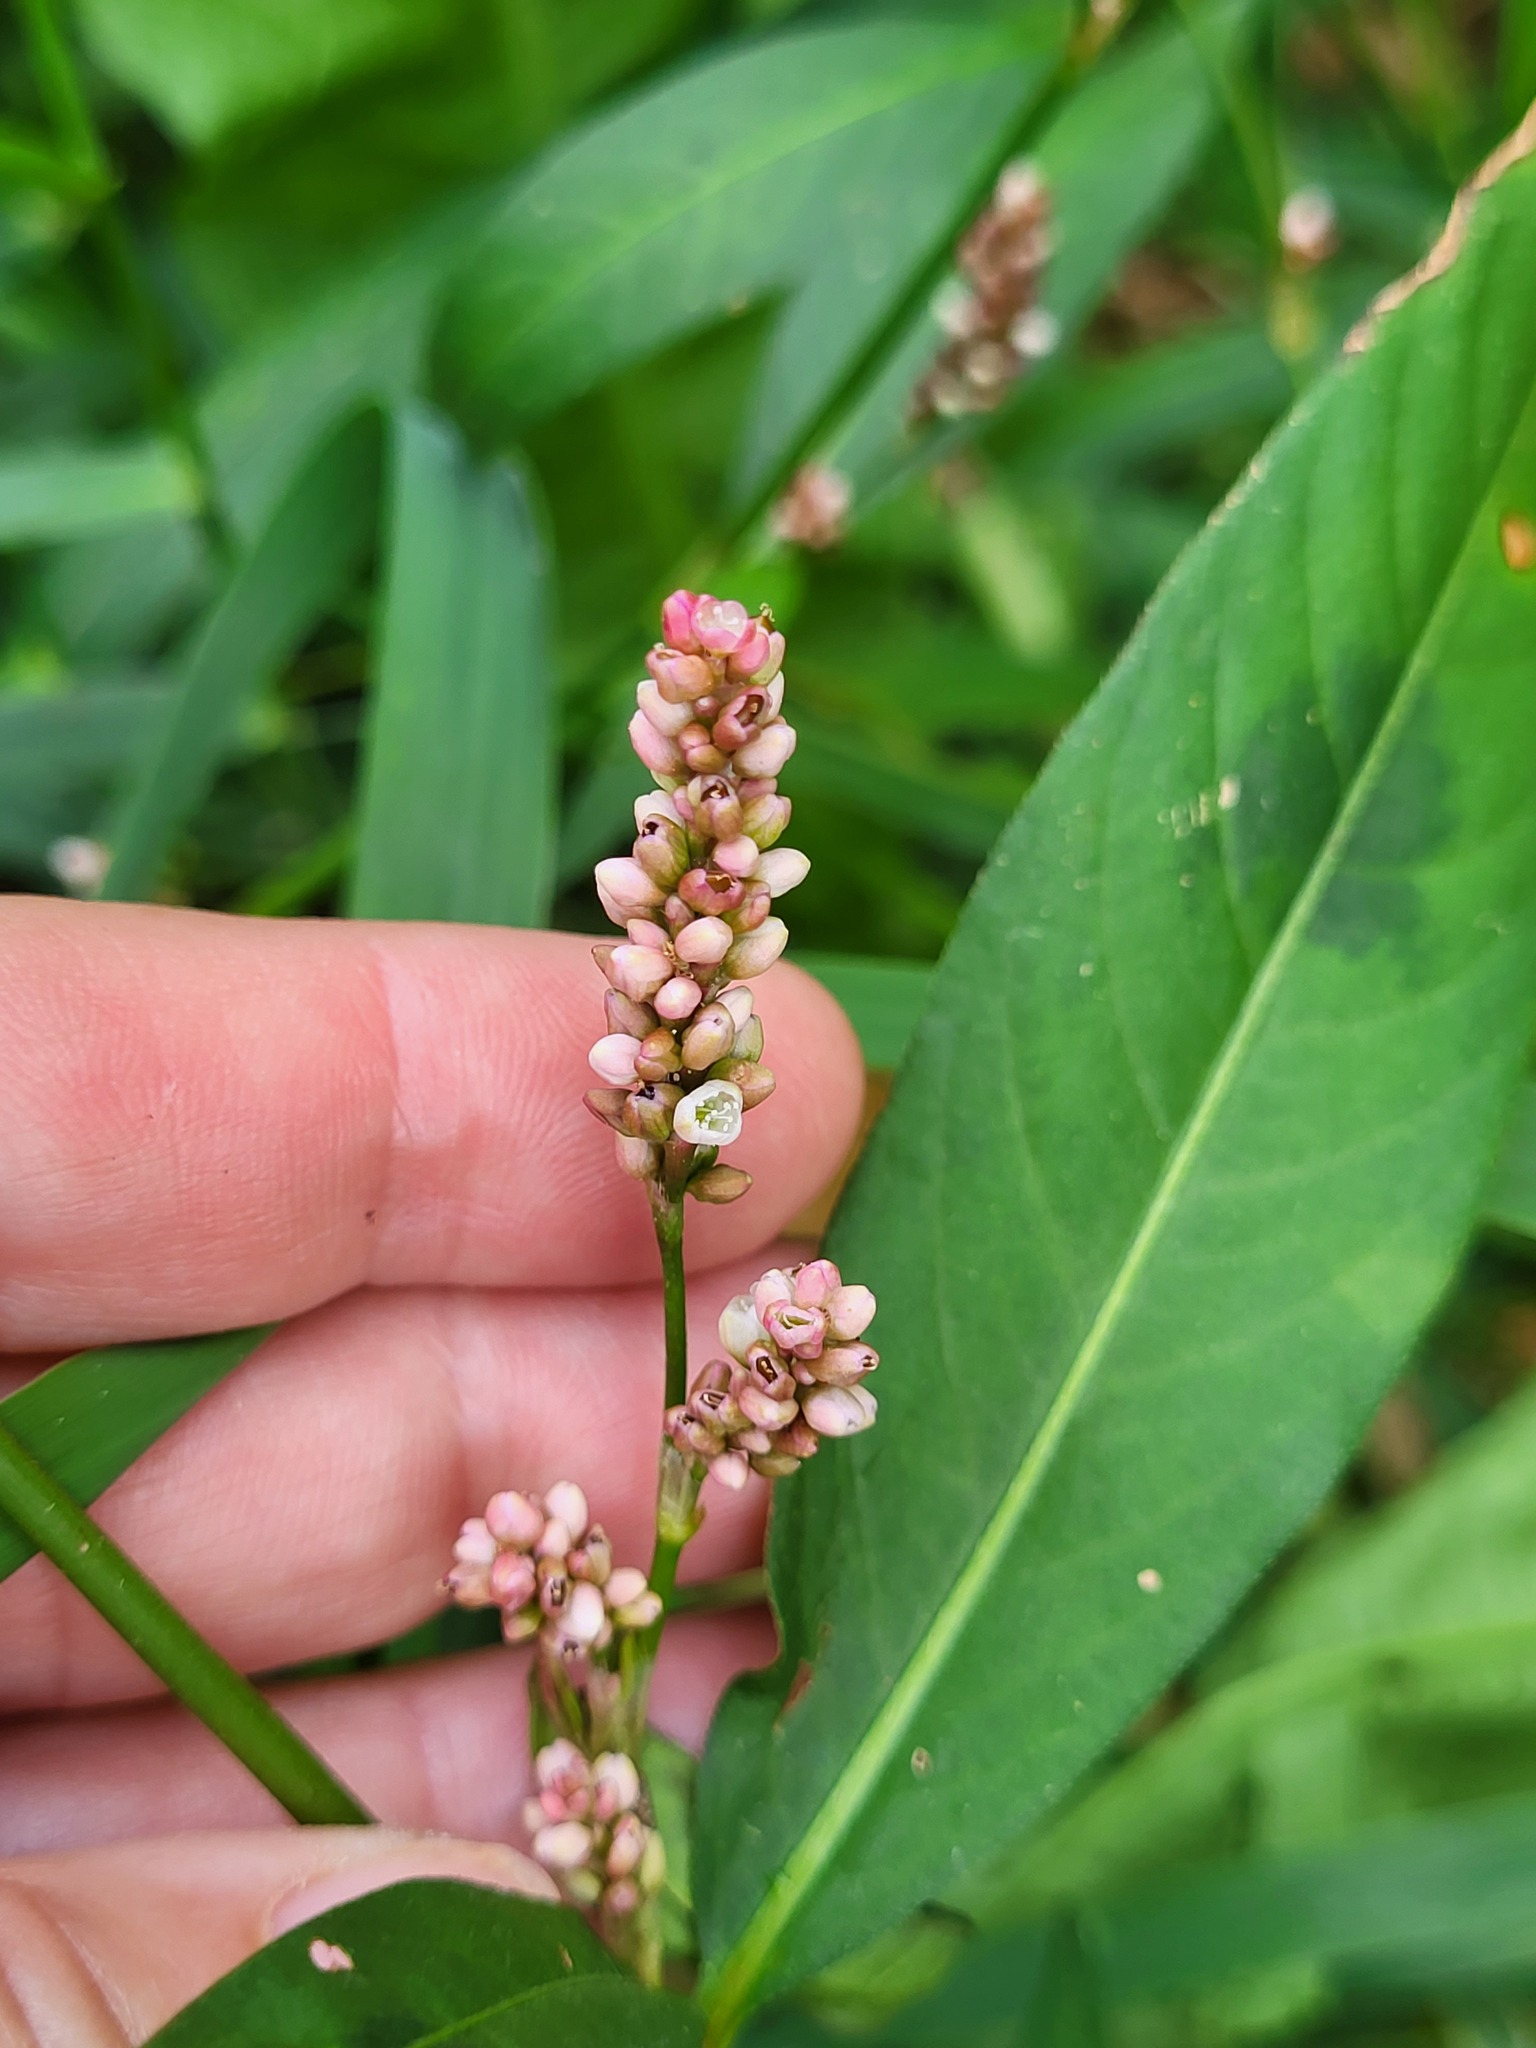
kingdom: Plantae
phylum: Tracheophyta
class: Magnoliopsida
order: Caryophyllales
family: Polygonaceae
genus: Persicaria
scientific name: Persicaria maculosa
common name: Redshank
